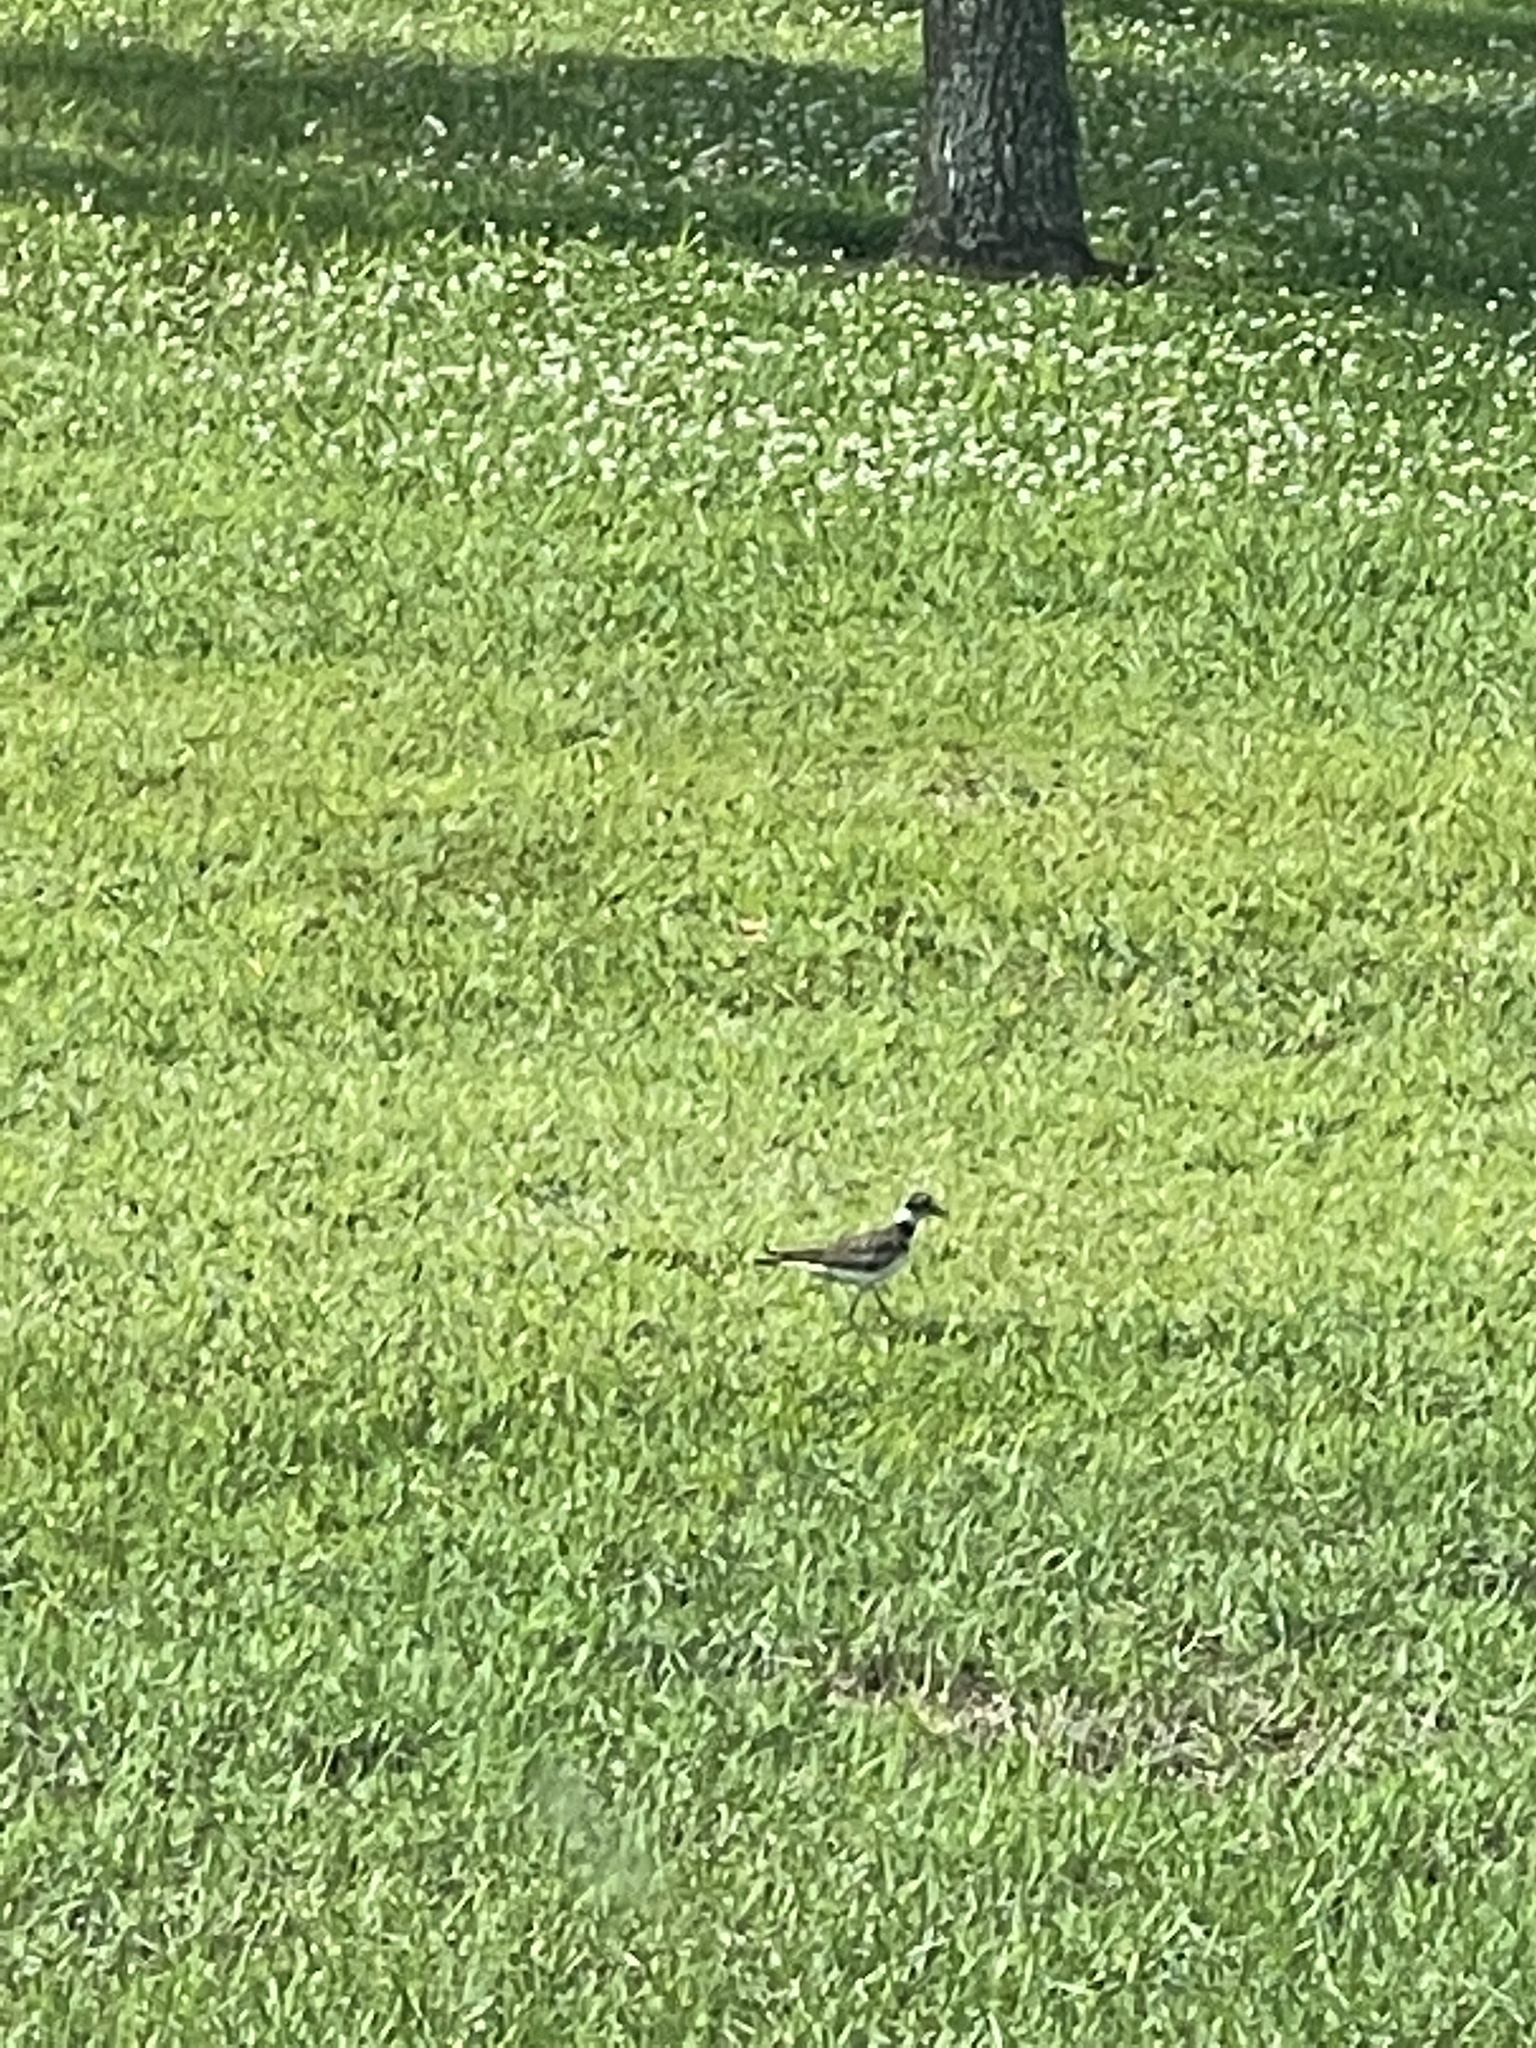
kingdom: Animalia
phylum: Chordata
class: Aves
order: Charadriiformes
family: Charadriidae
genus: Charadrius
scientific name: Charadrius vociferus
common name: Killdeer
